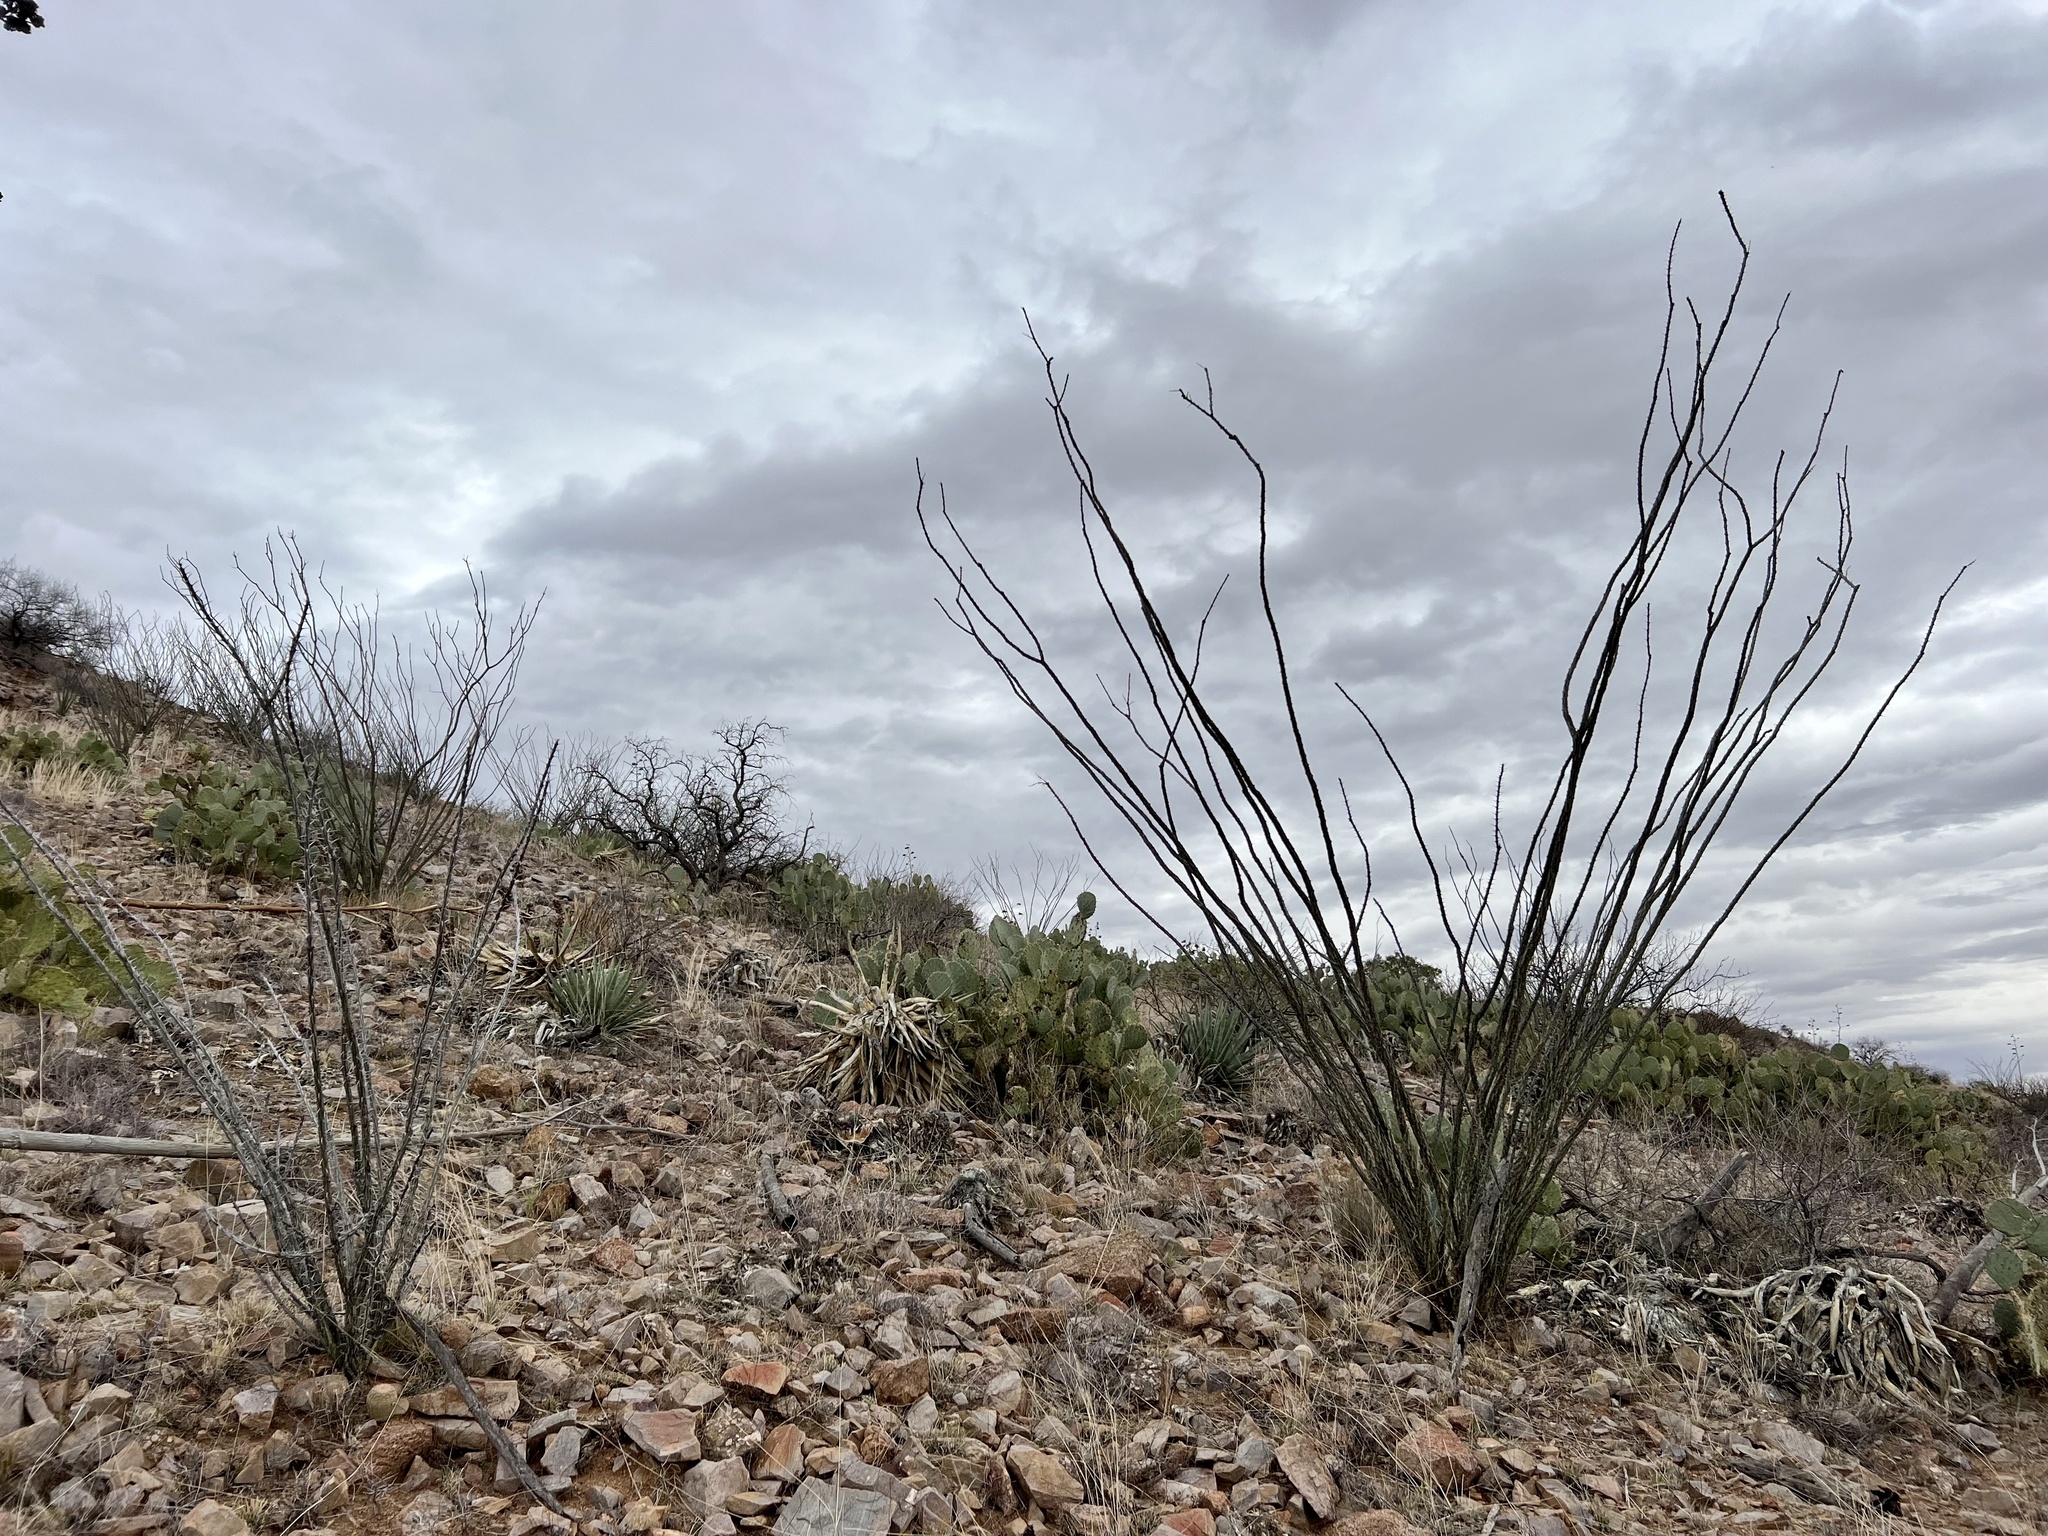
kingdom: Plantae
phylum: Tracheophyta
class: Magnoliopsida
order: Ericales
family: Fouquieriaceae
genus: Fouquieria
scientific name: Fouquieria splendens
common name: Vine-cactus
